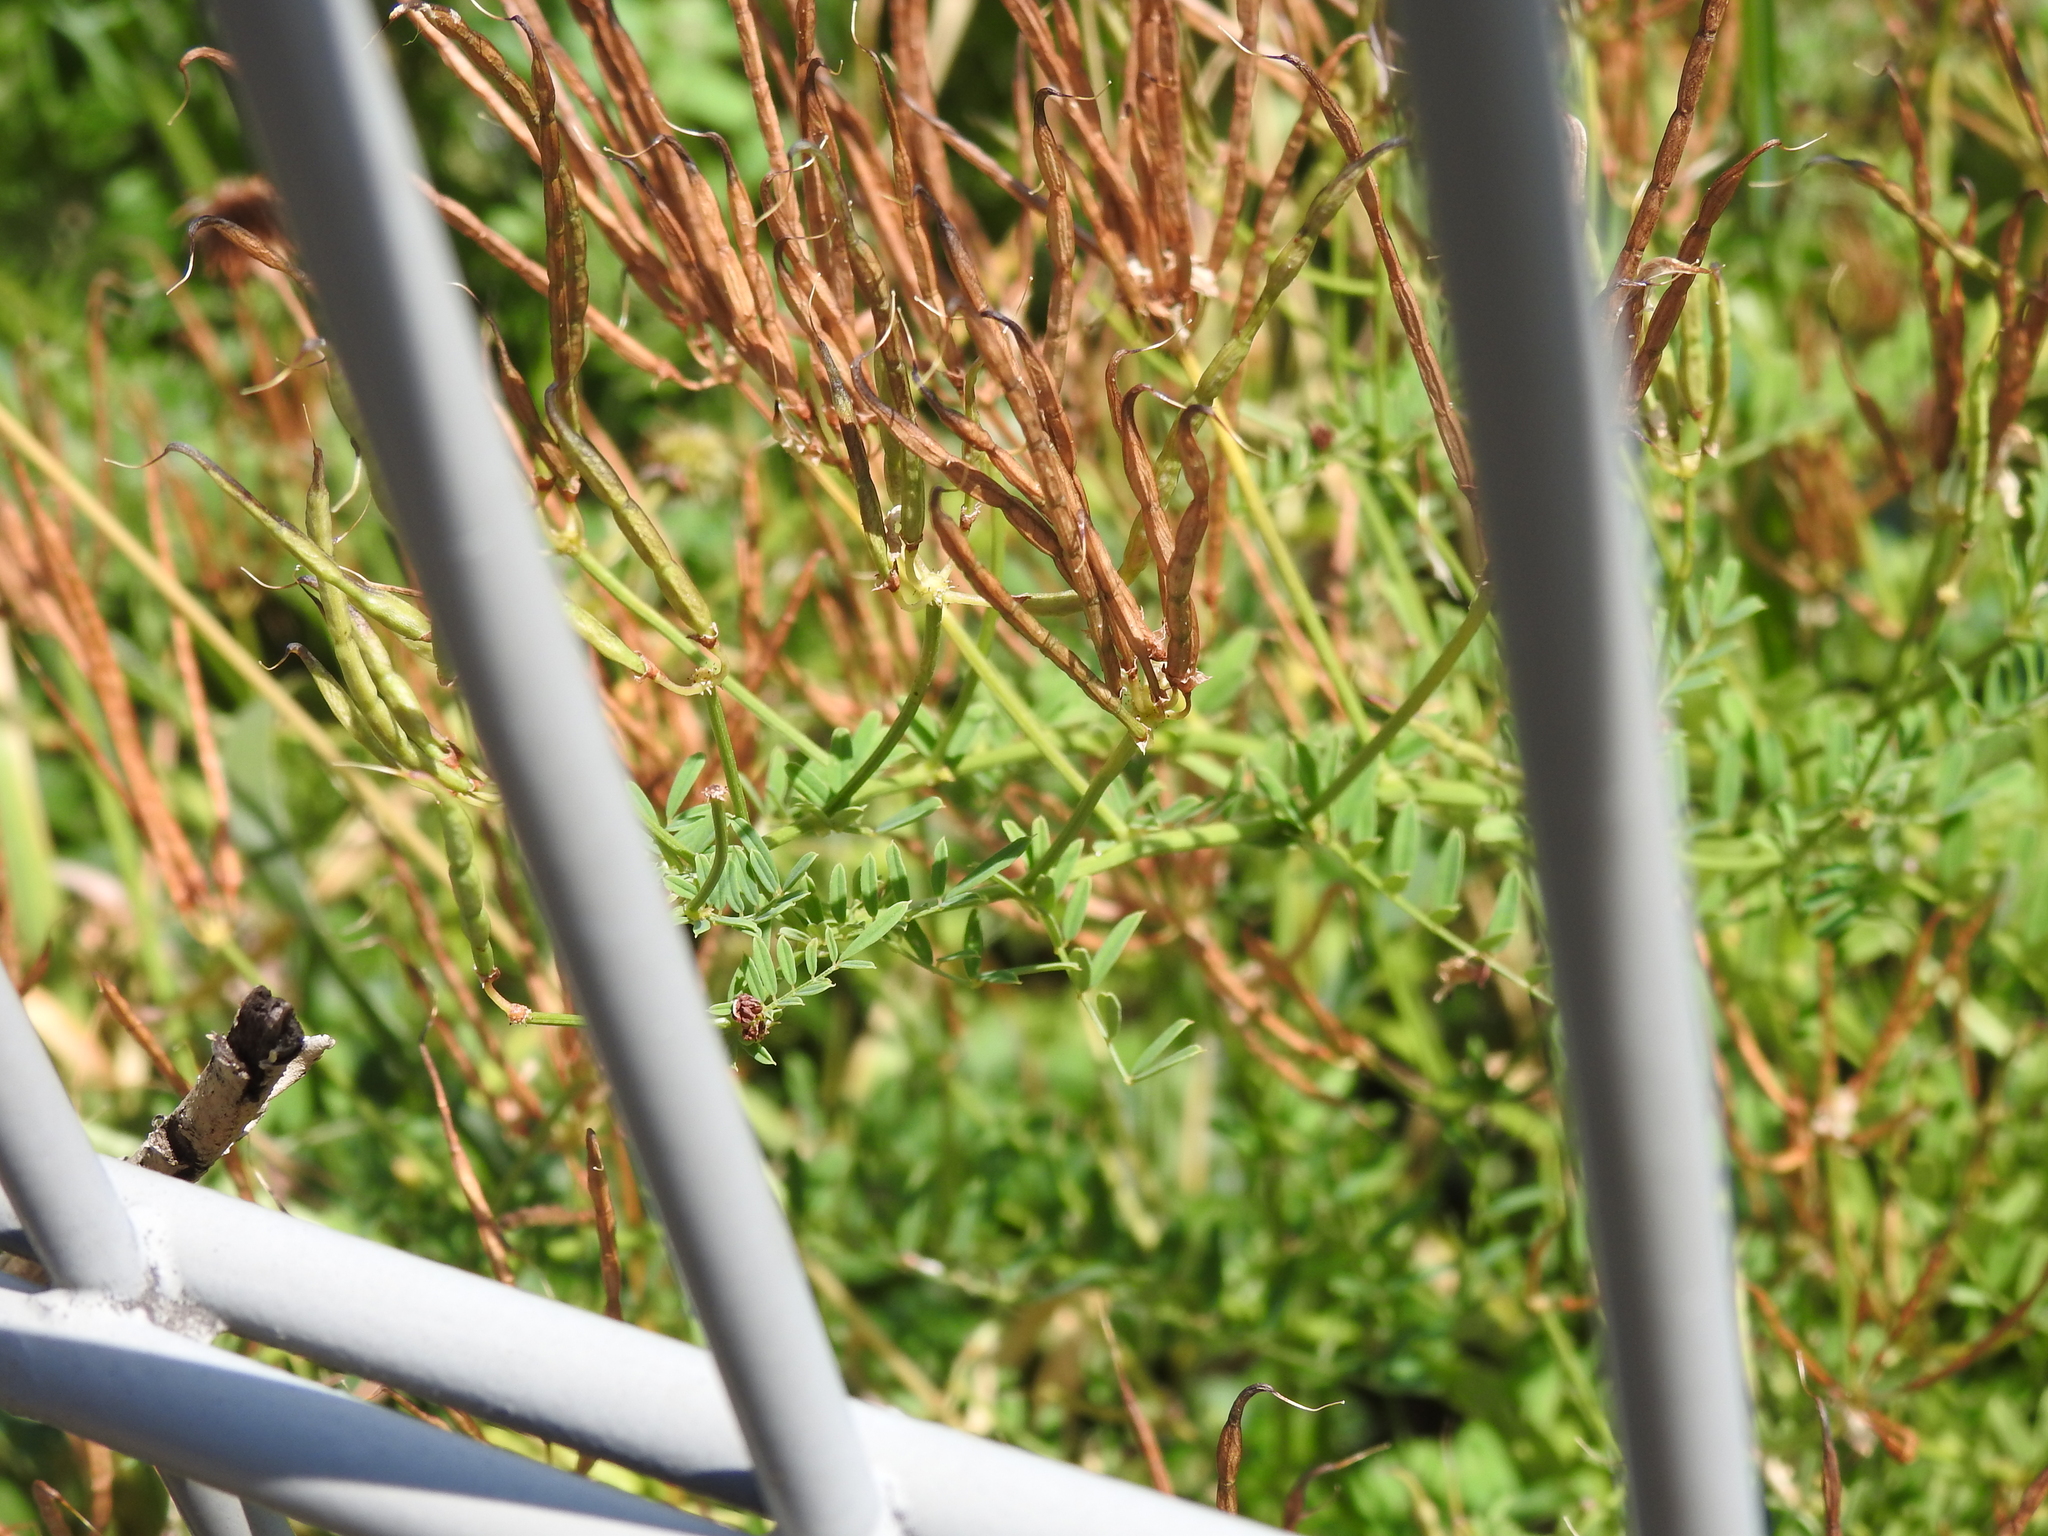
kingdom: Plantae
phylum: Tracheophyta
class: Magnoliopsida
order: Fabales
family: Fabaceae
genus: Coronilla
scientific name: Coronilla varia
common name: Crownvetch
